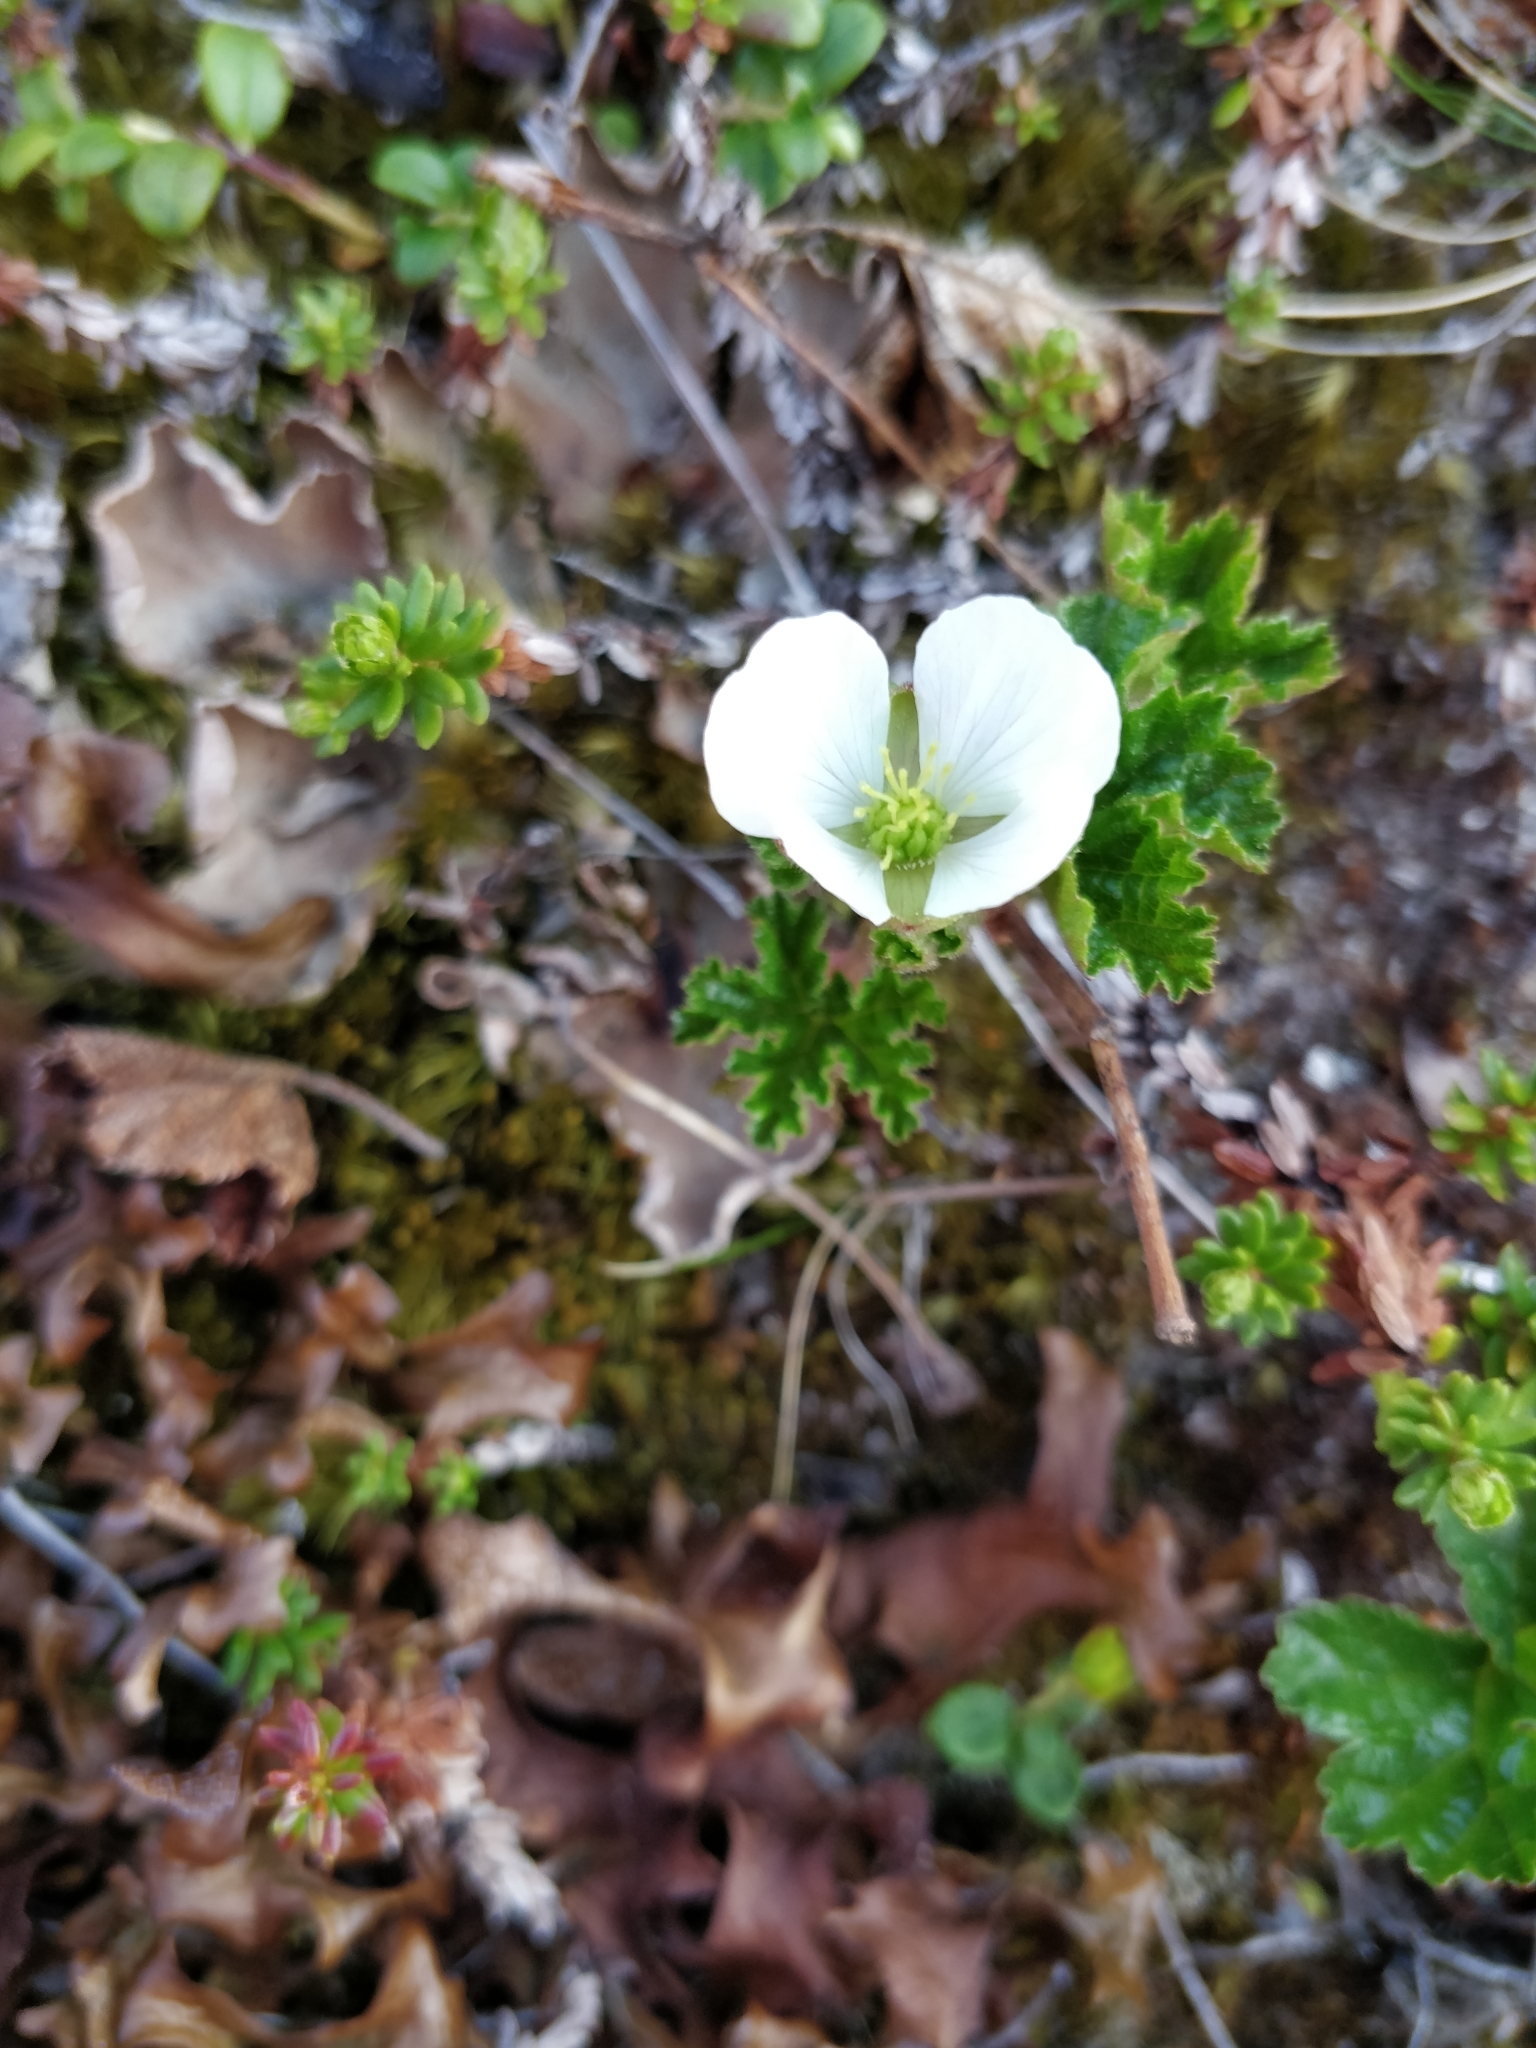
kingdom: Plantae
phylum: Tracheophyta
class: Magnoliopsida
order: Rosales
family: Rosaceae
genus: Rubus
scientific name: Rubus chamaemorus
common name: Cloudberry
